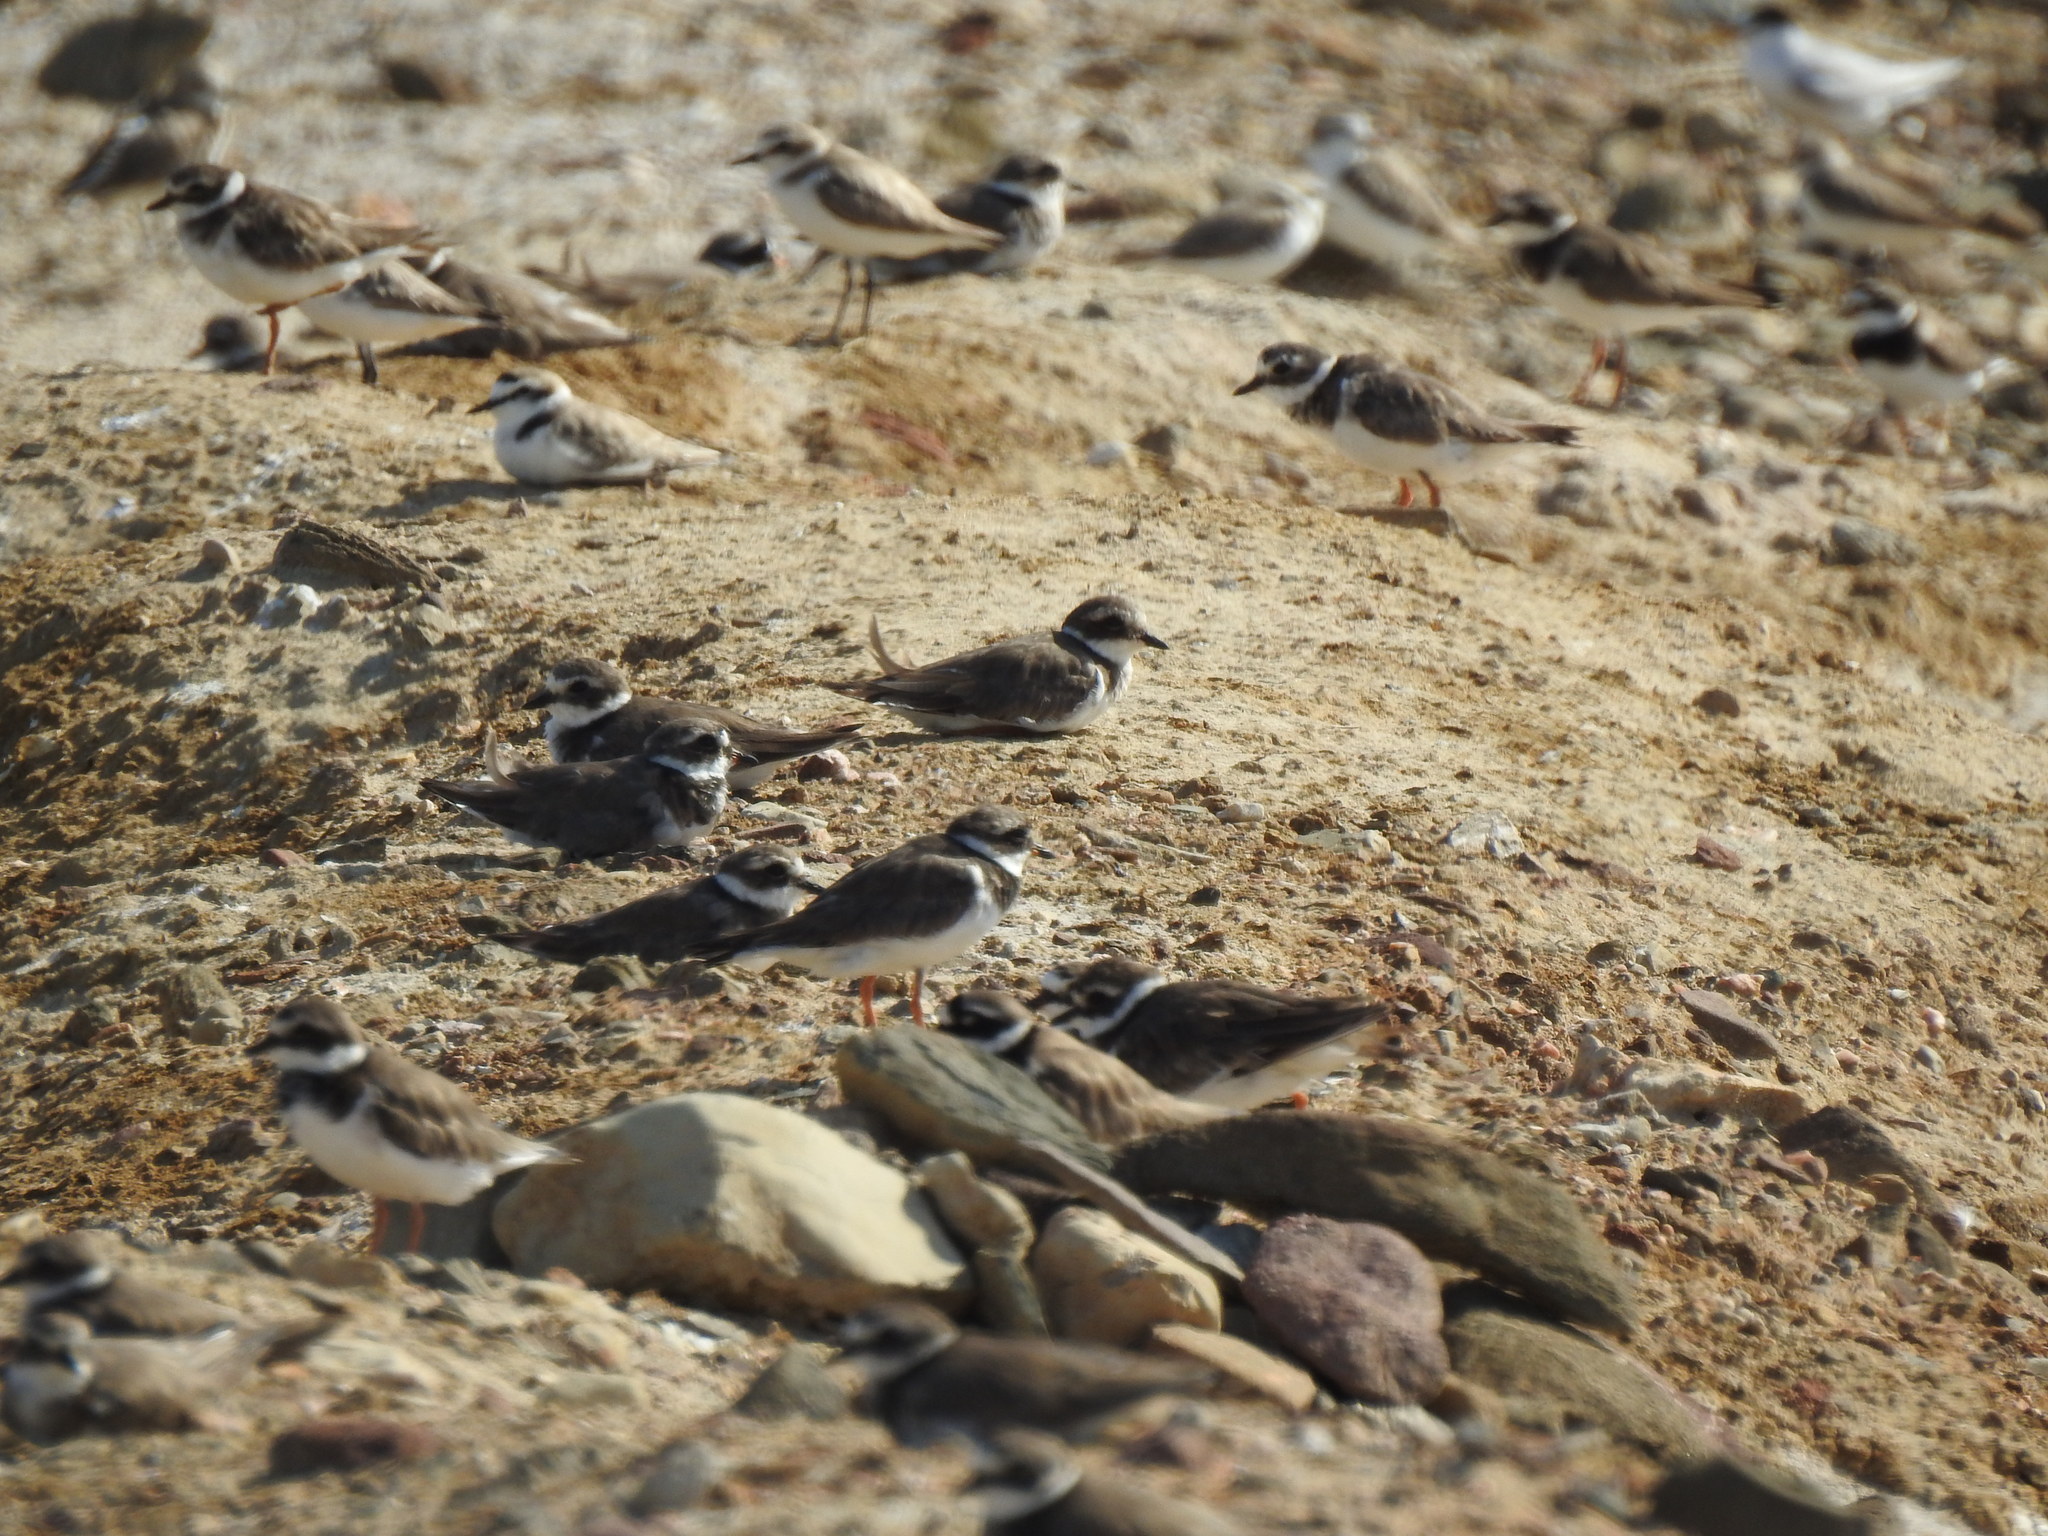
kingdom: Animalia
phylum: Chordata
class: Aves
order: Charadriiformes
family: Charadriidae
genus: Charadrius
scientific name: Charadrius hiaticula
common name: Common ringed plover
